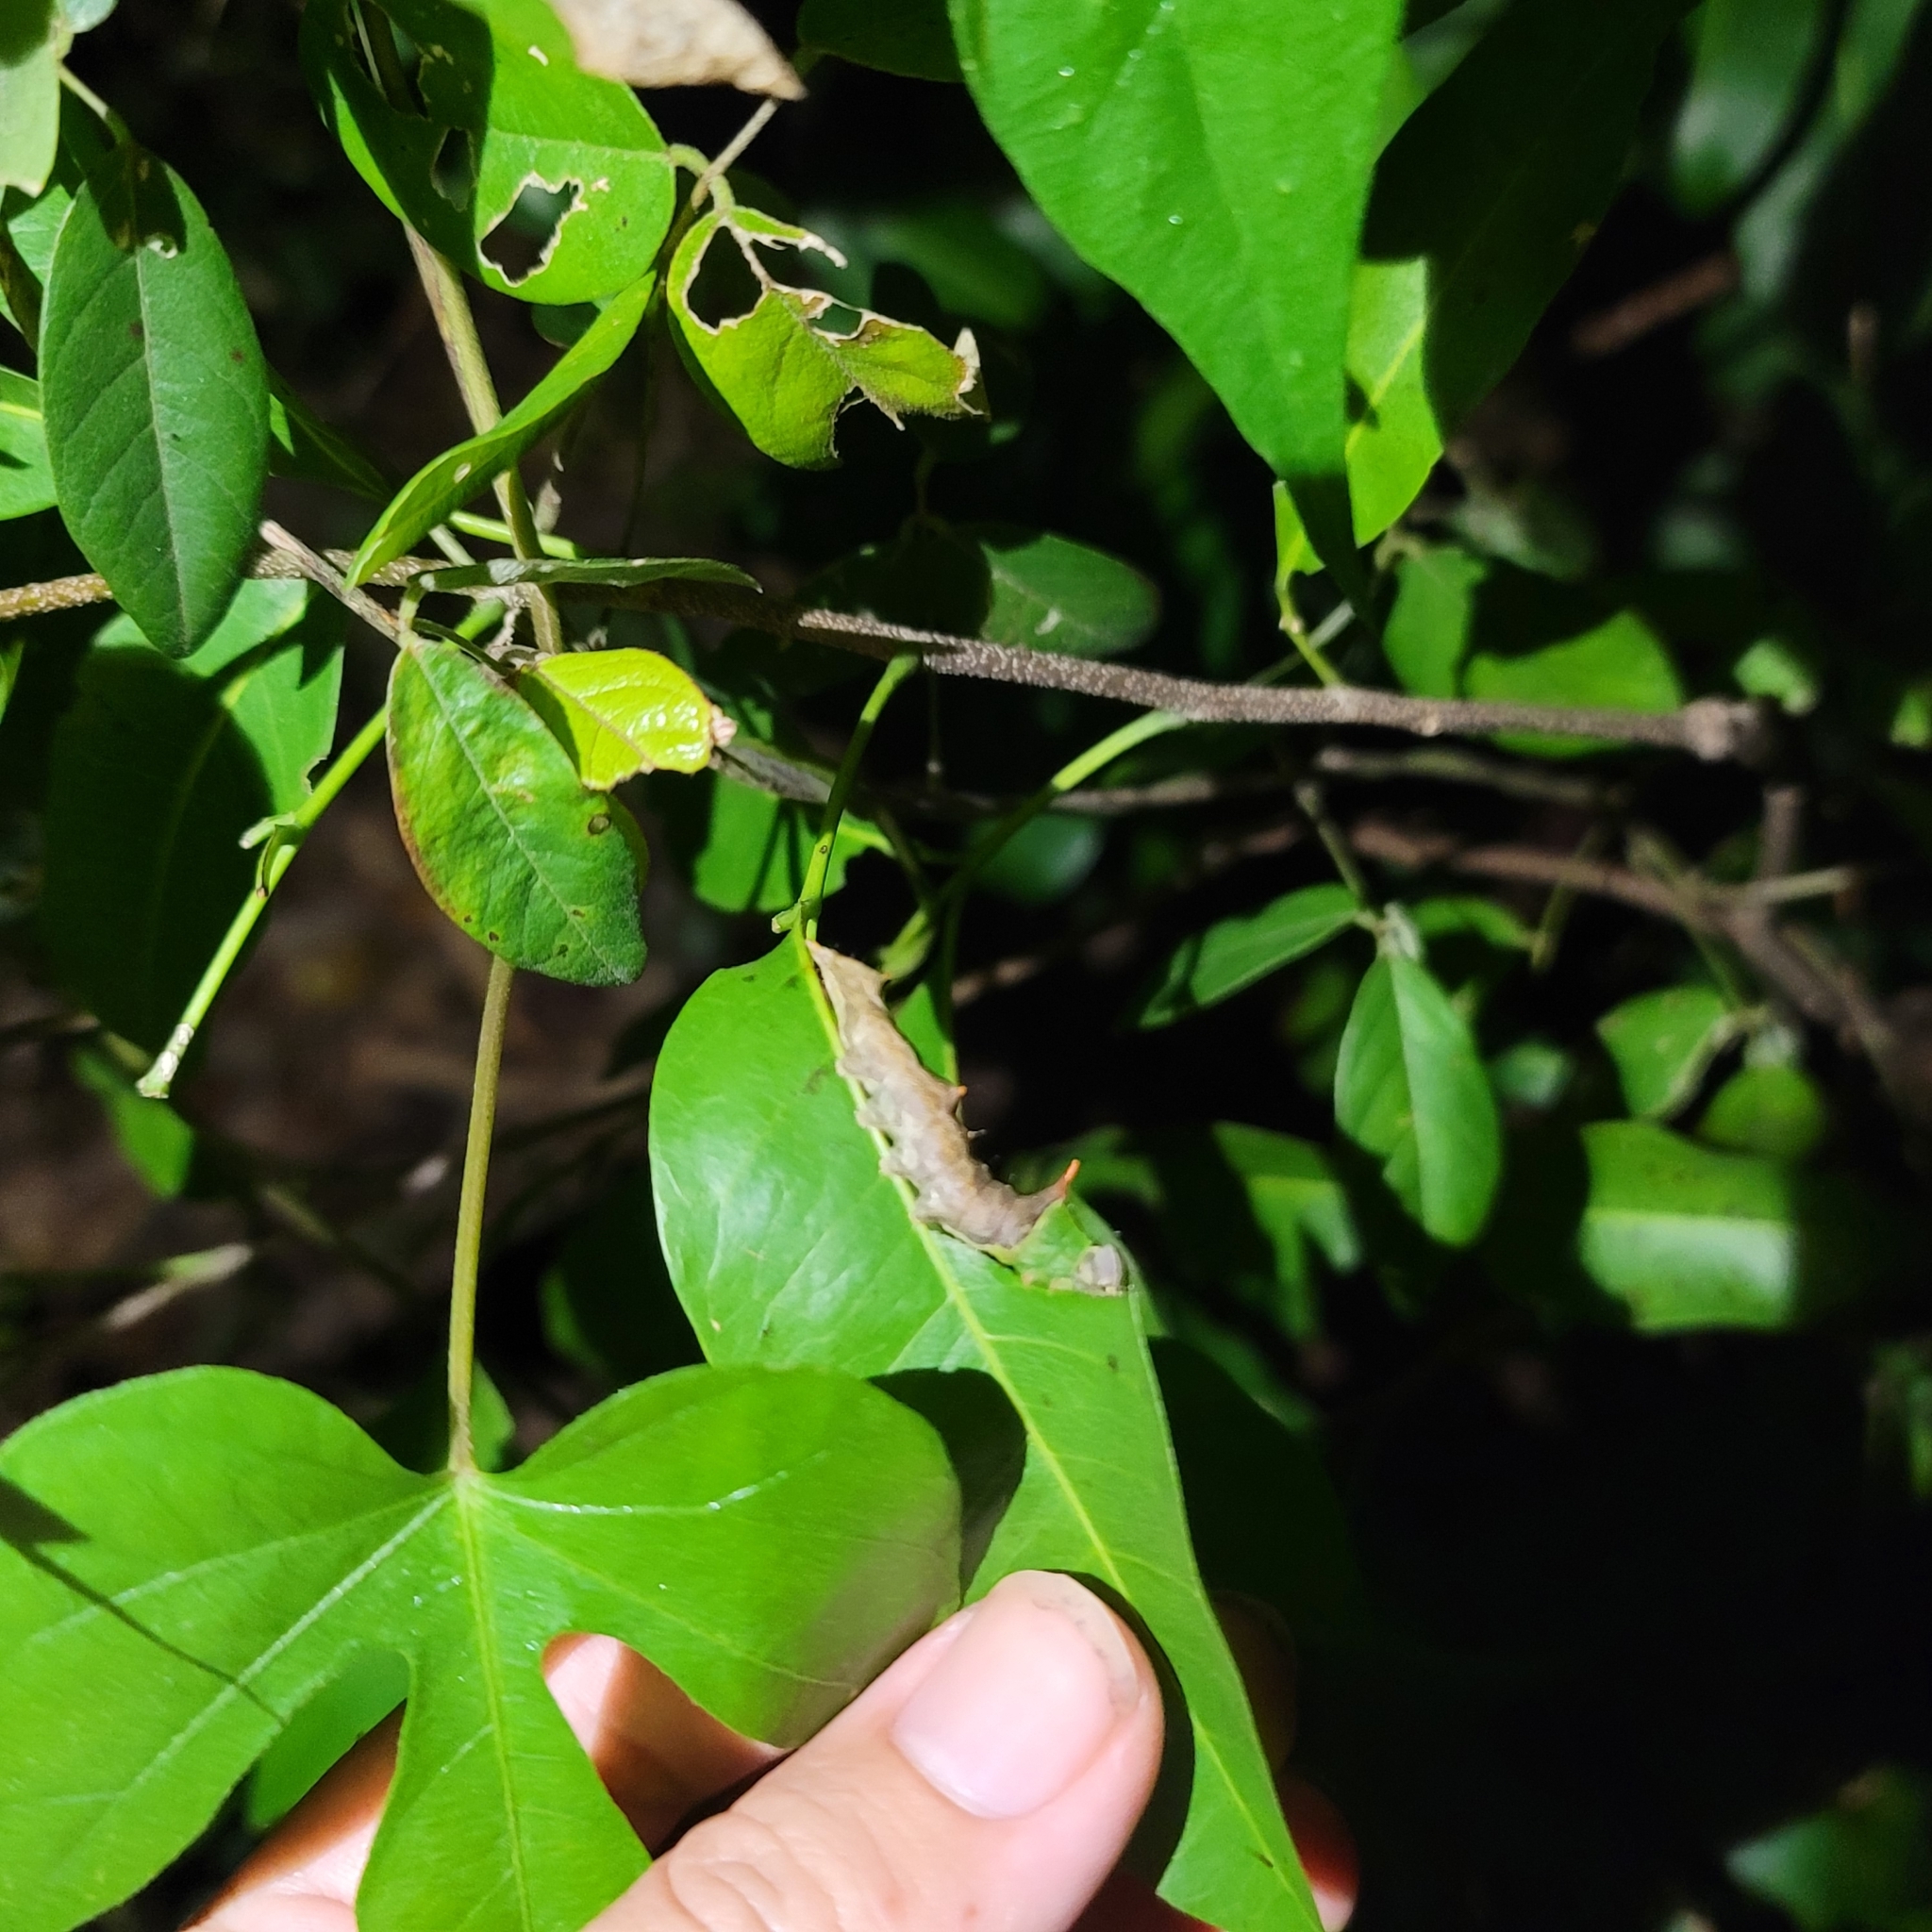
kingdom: Animalia
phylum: Arthropoda
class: Insecta
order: Lepidoptera
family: Notodontidae
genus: Schizura
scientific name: Schizura ipomaeae
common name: Morning-glory prominent
